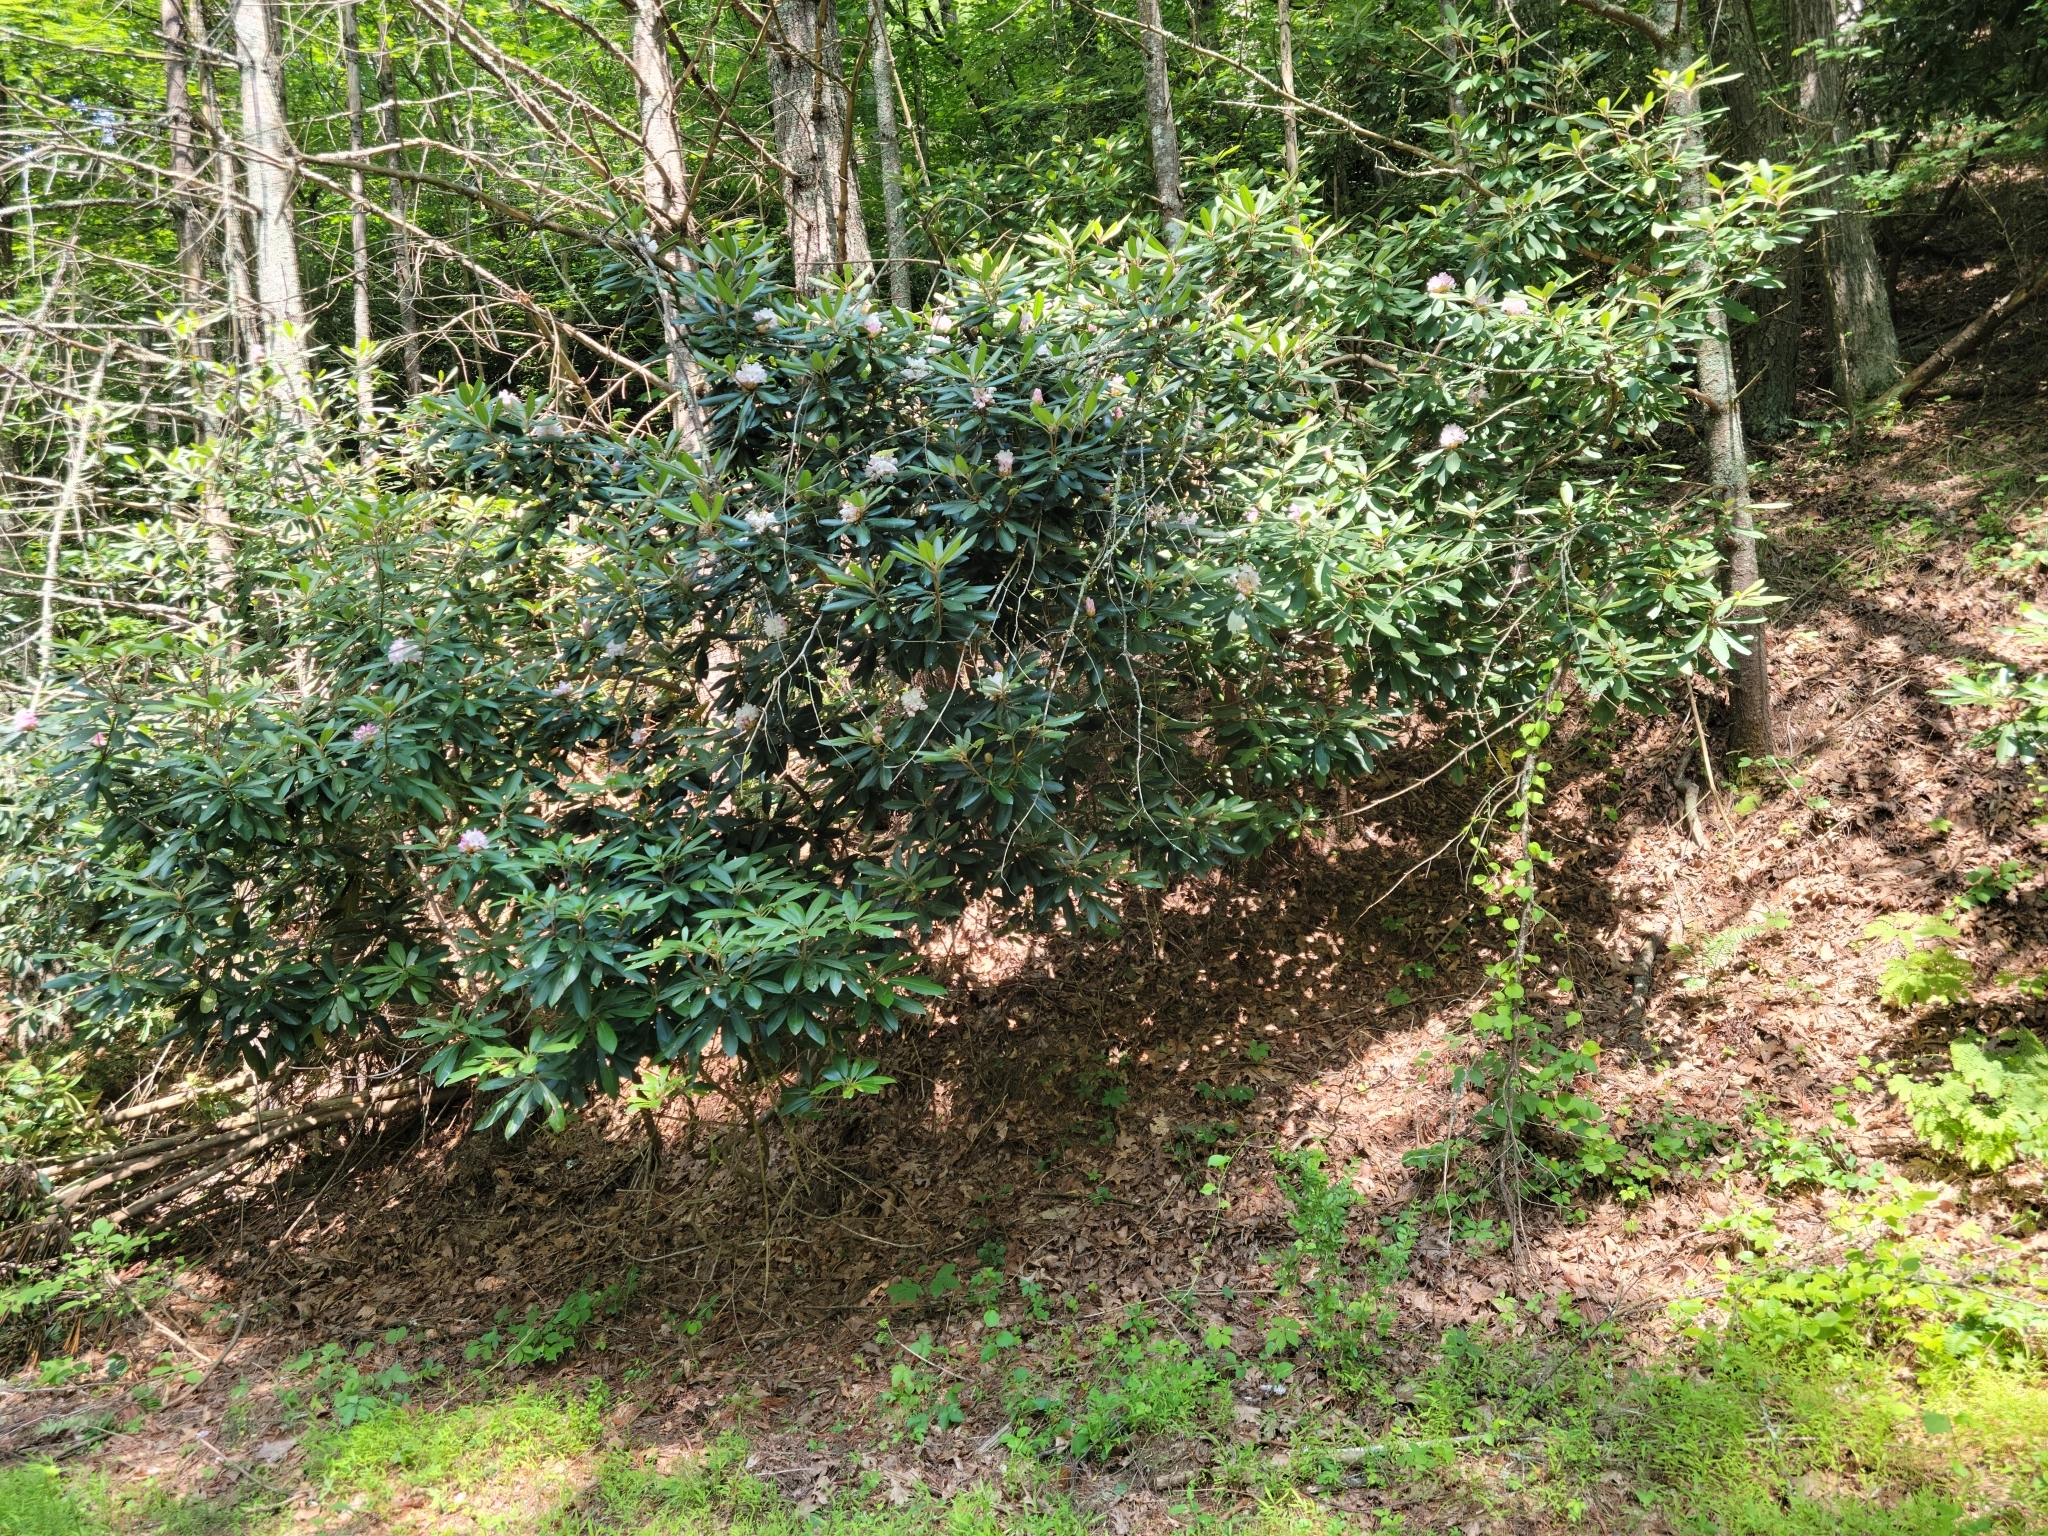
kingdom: Plantae
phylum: Tracheophyta
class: Magnoliopsida
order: Ericales
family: Ericaceae
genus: Rhododendron
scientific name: Rhododendron maximum
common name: Great rhododendron
